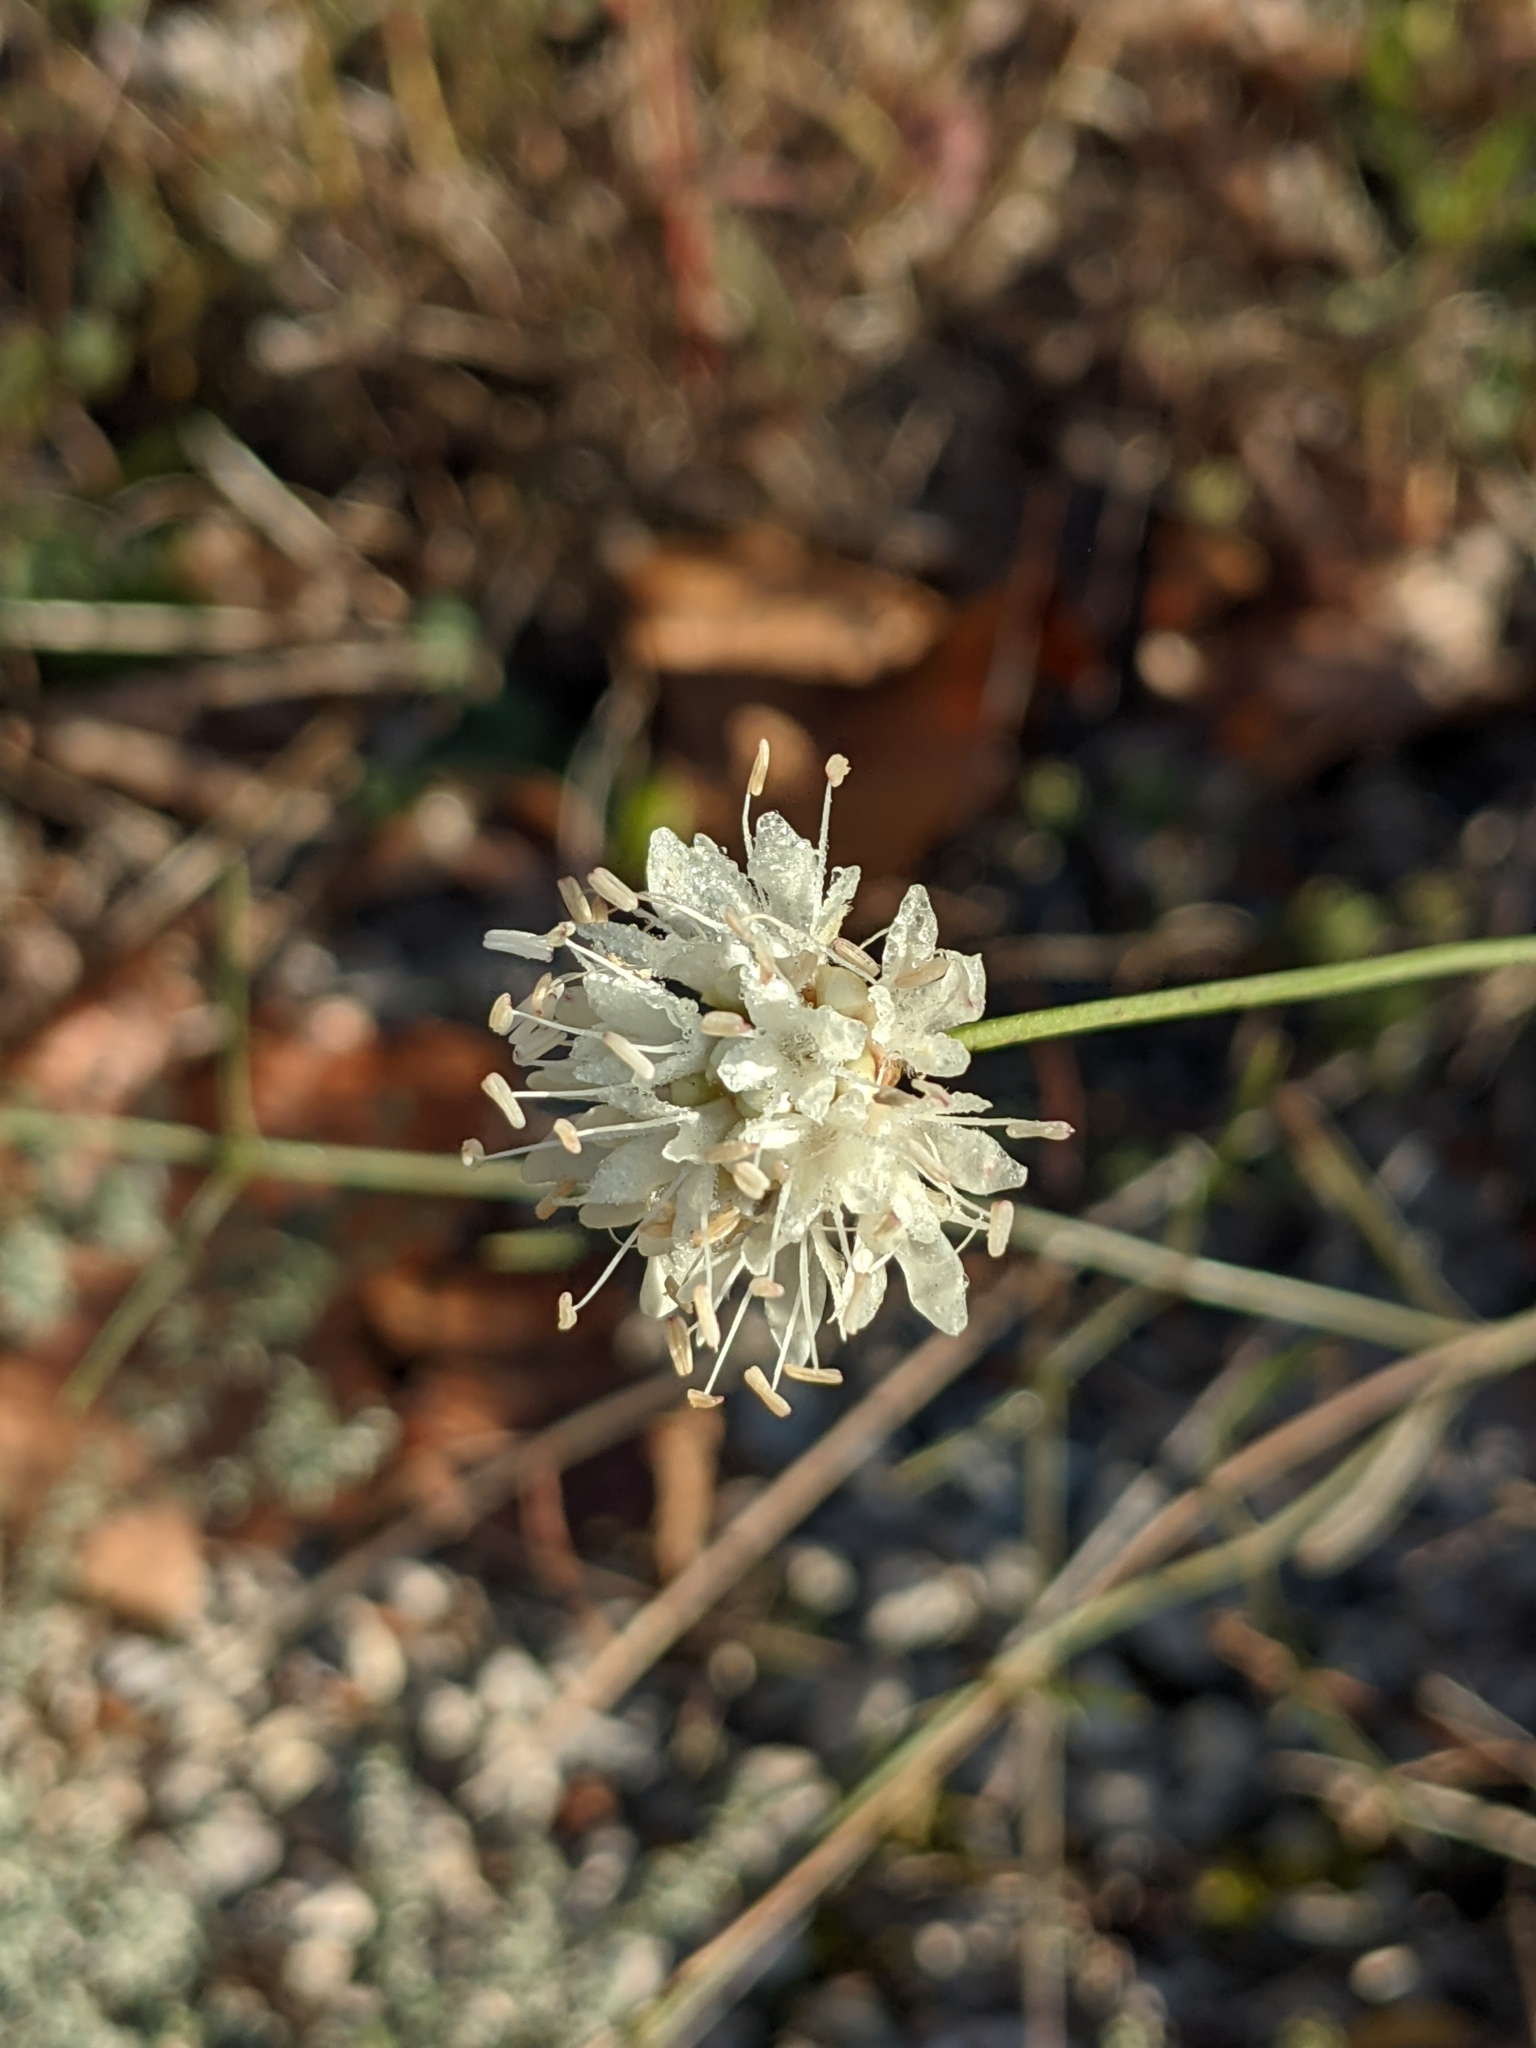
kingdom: Plantae
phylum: Tracheophyta
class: Magnoliopsida
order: Dipsacales
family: Caprifoliaceae
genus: Cephalaria
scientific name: Cephalaria leucantha
